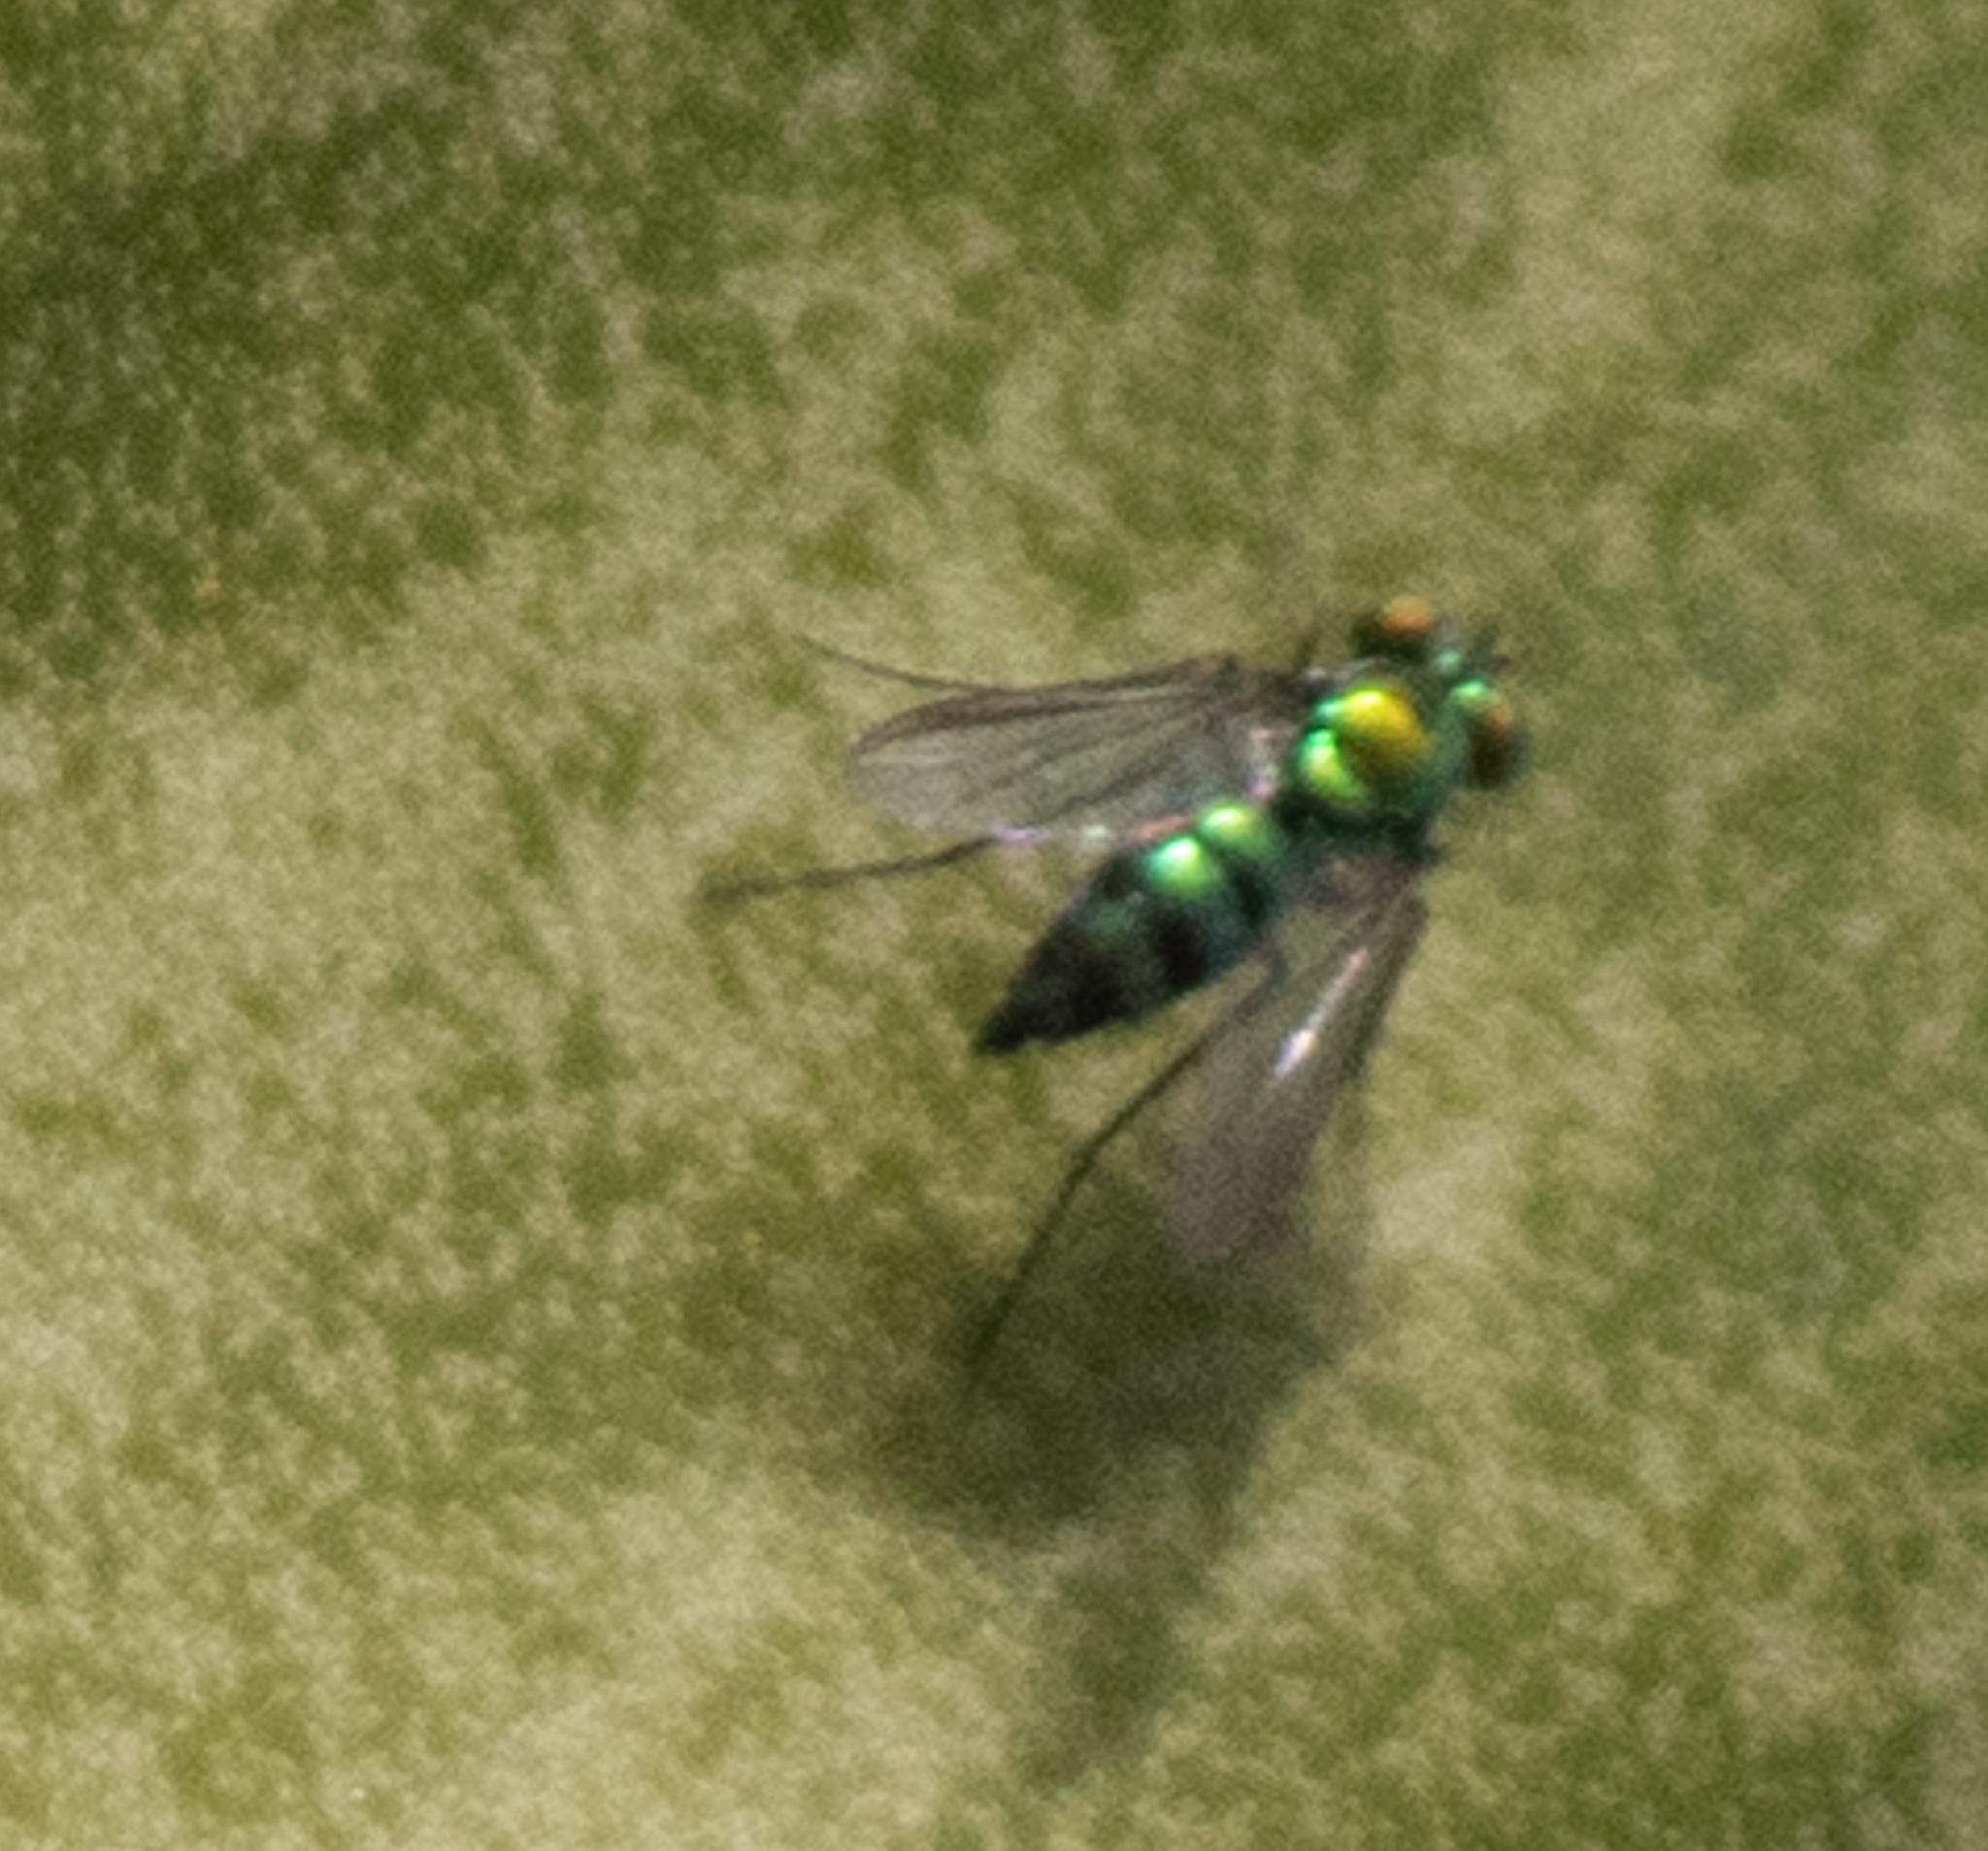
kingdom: Animalia
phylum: Arthropoda
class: Insecta
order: Diptera
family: Dolichopodidae
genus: Condylostylus
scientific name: Condylostylus longicornis
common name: Long-legged fly
